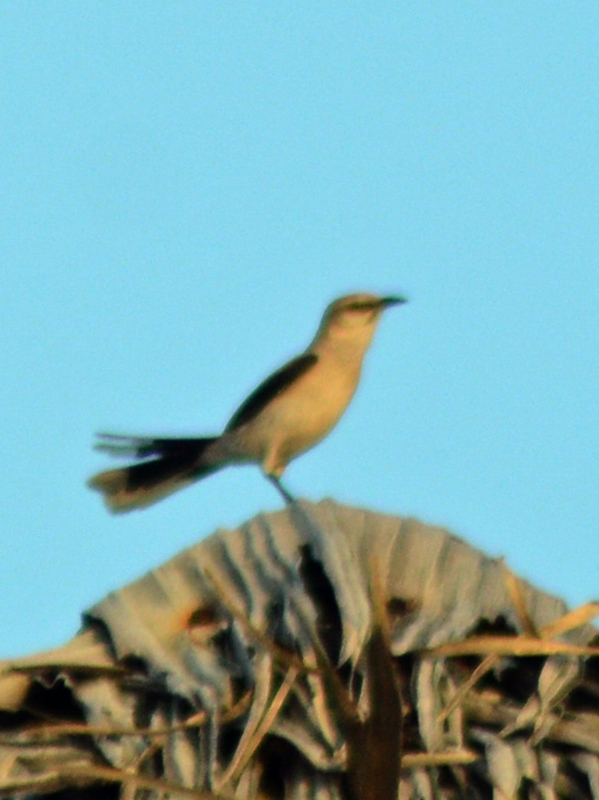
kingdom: Animalia
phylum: Chordata
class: Aves
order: Passeriformes
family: Mimidae
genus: Mimus
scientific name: Mimus gilvus
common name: Tropical mockingbird
